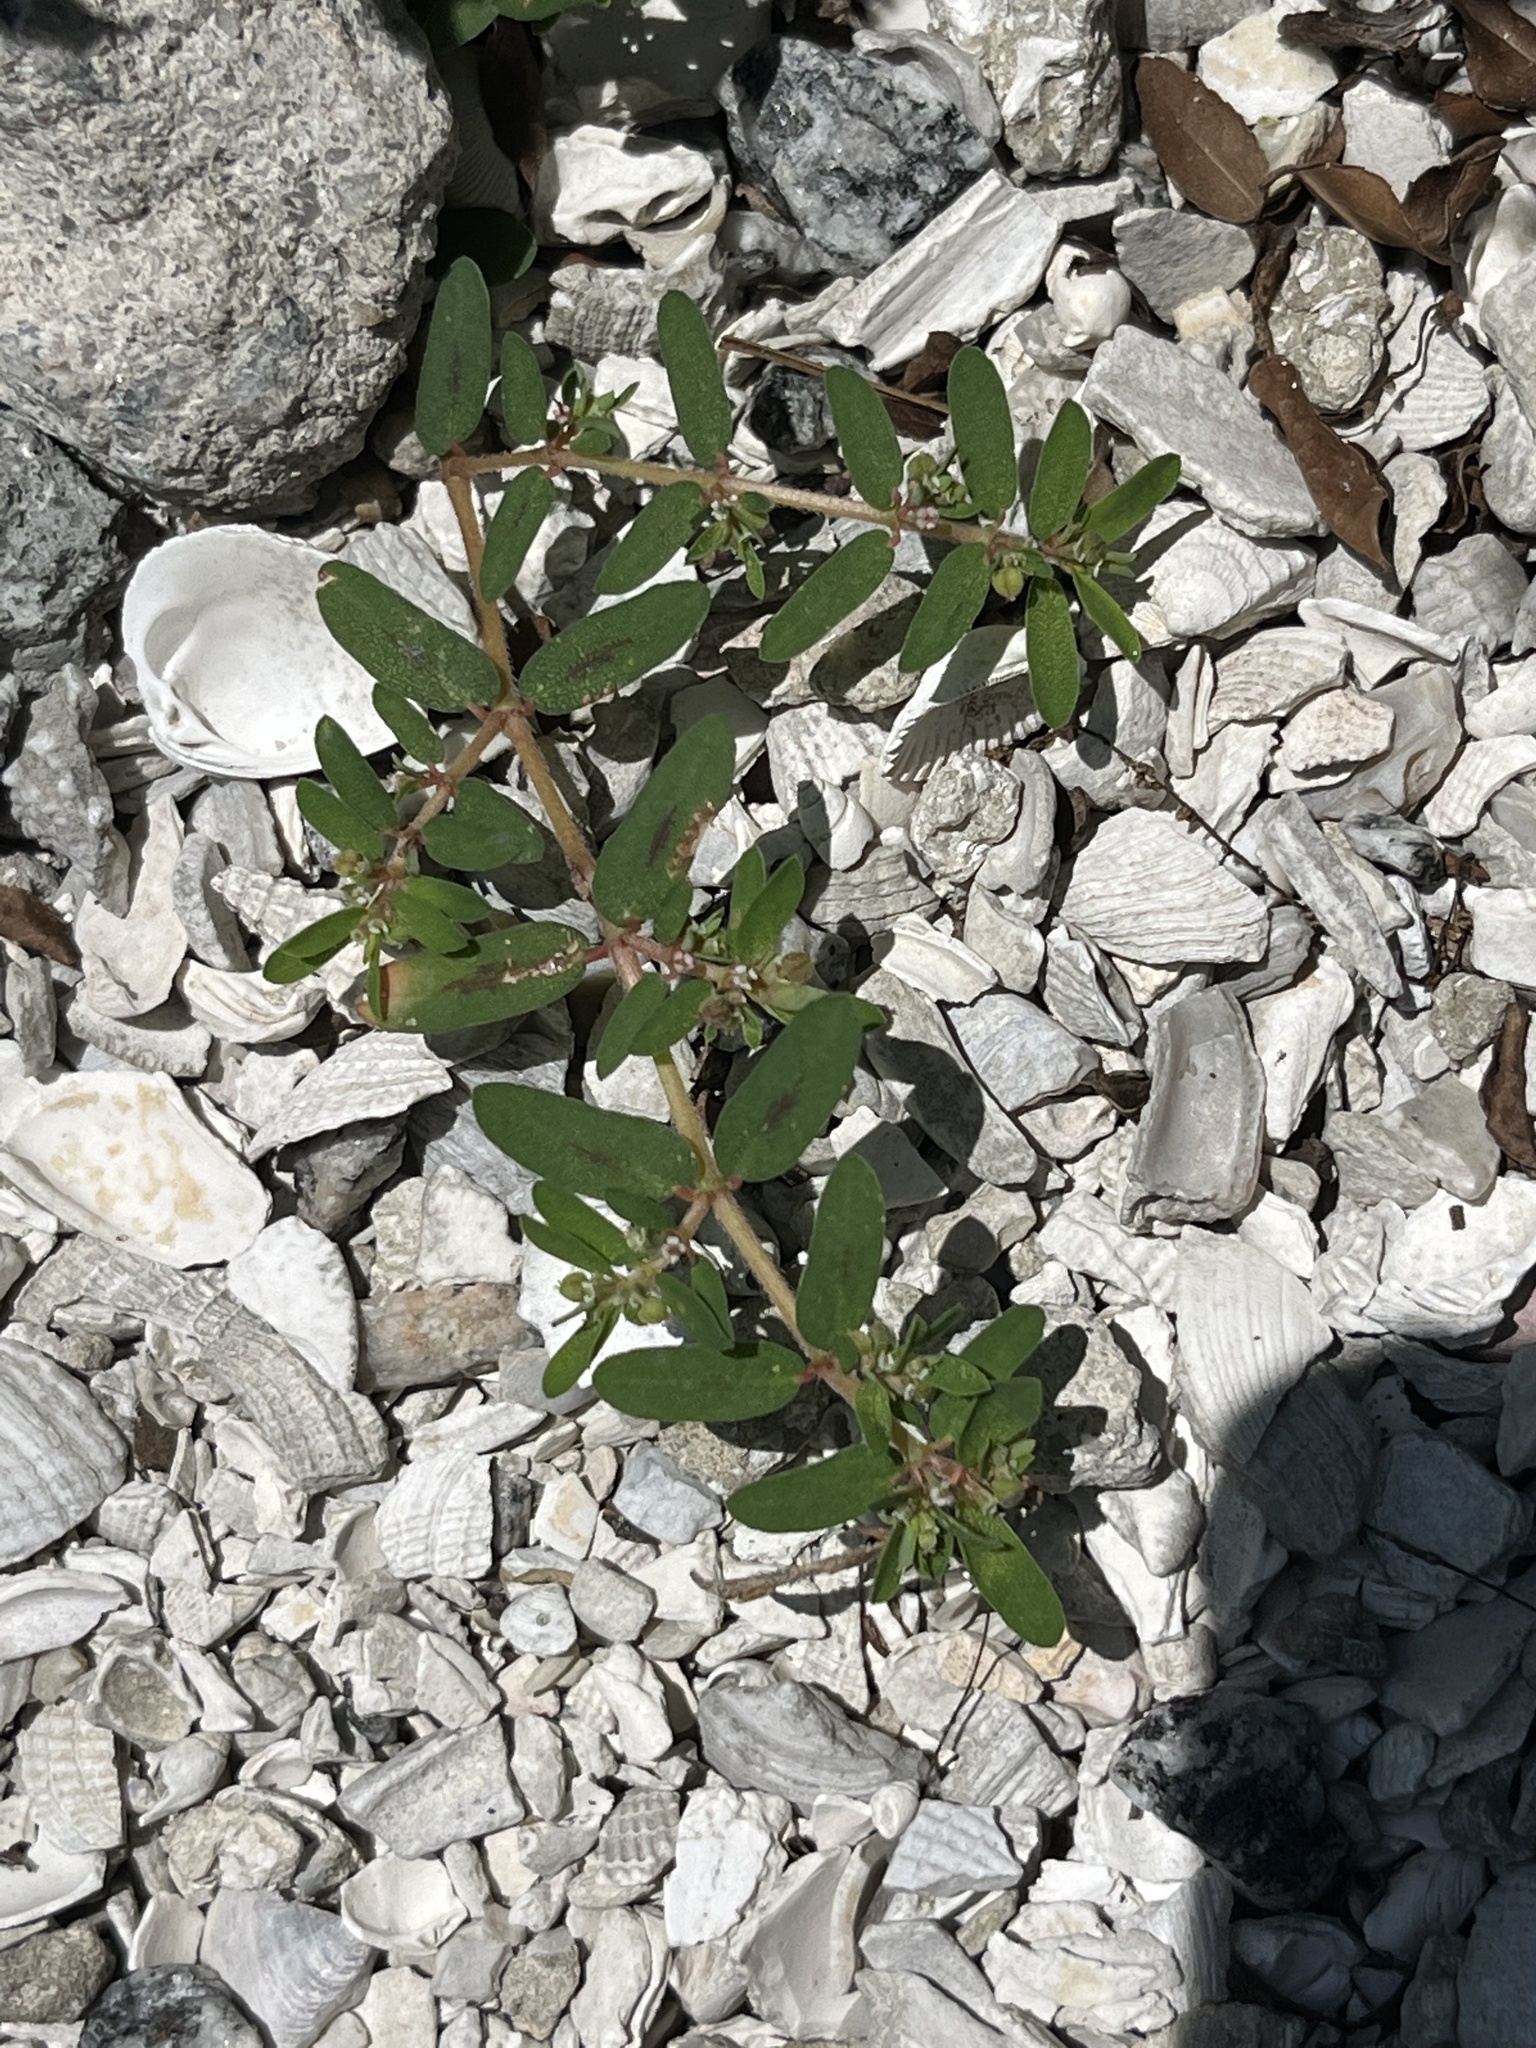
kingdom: Plantae
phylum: Tracheophyta
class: Magnoliopsida
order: Malpighiales
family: Euphorbiaceae
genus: Euphorbia
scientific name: Euphorbia maculata
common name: Spotted spurge
